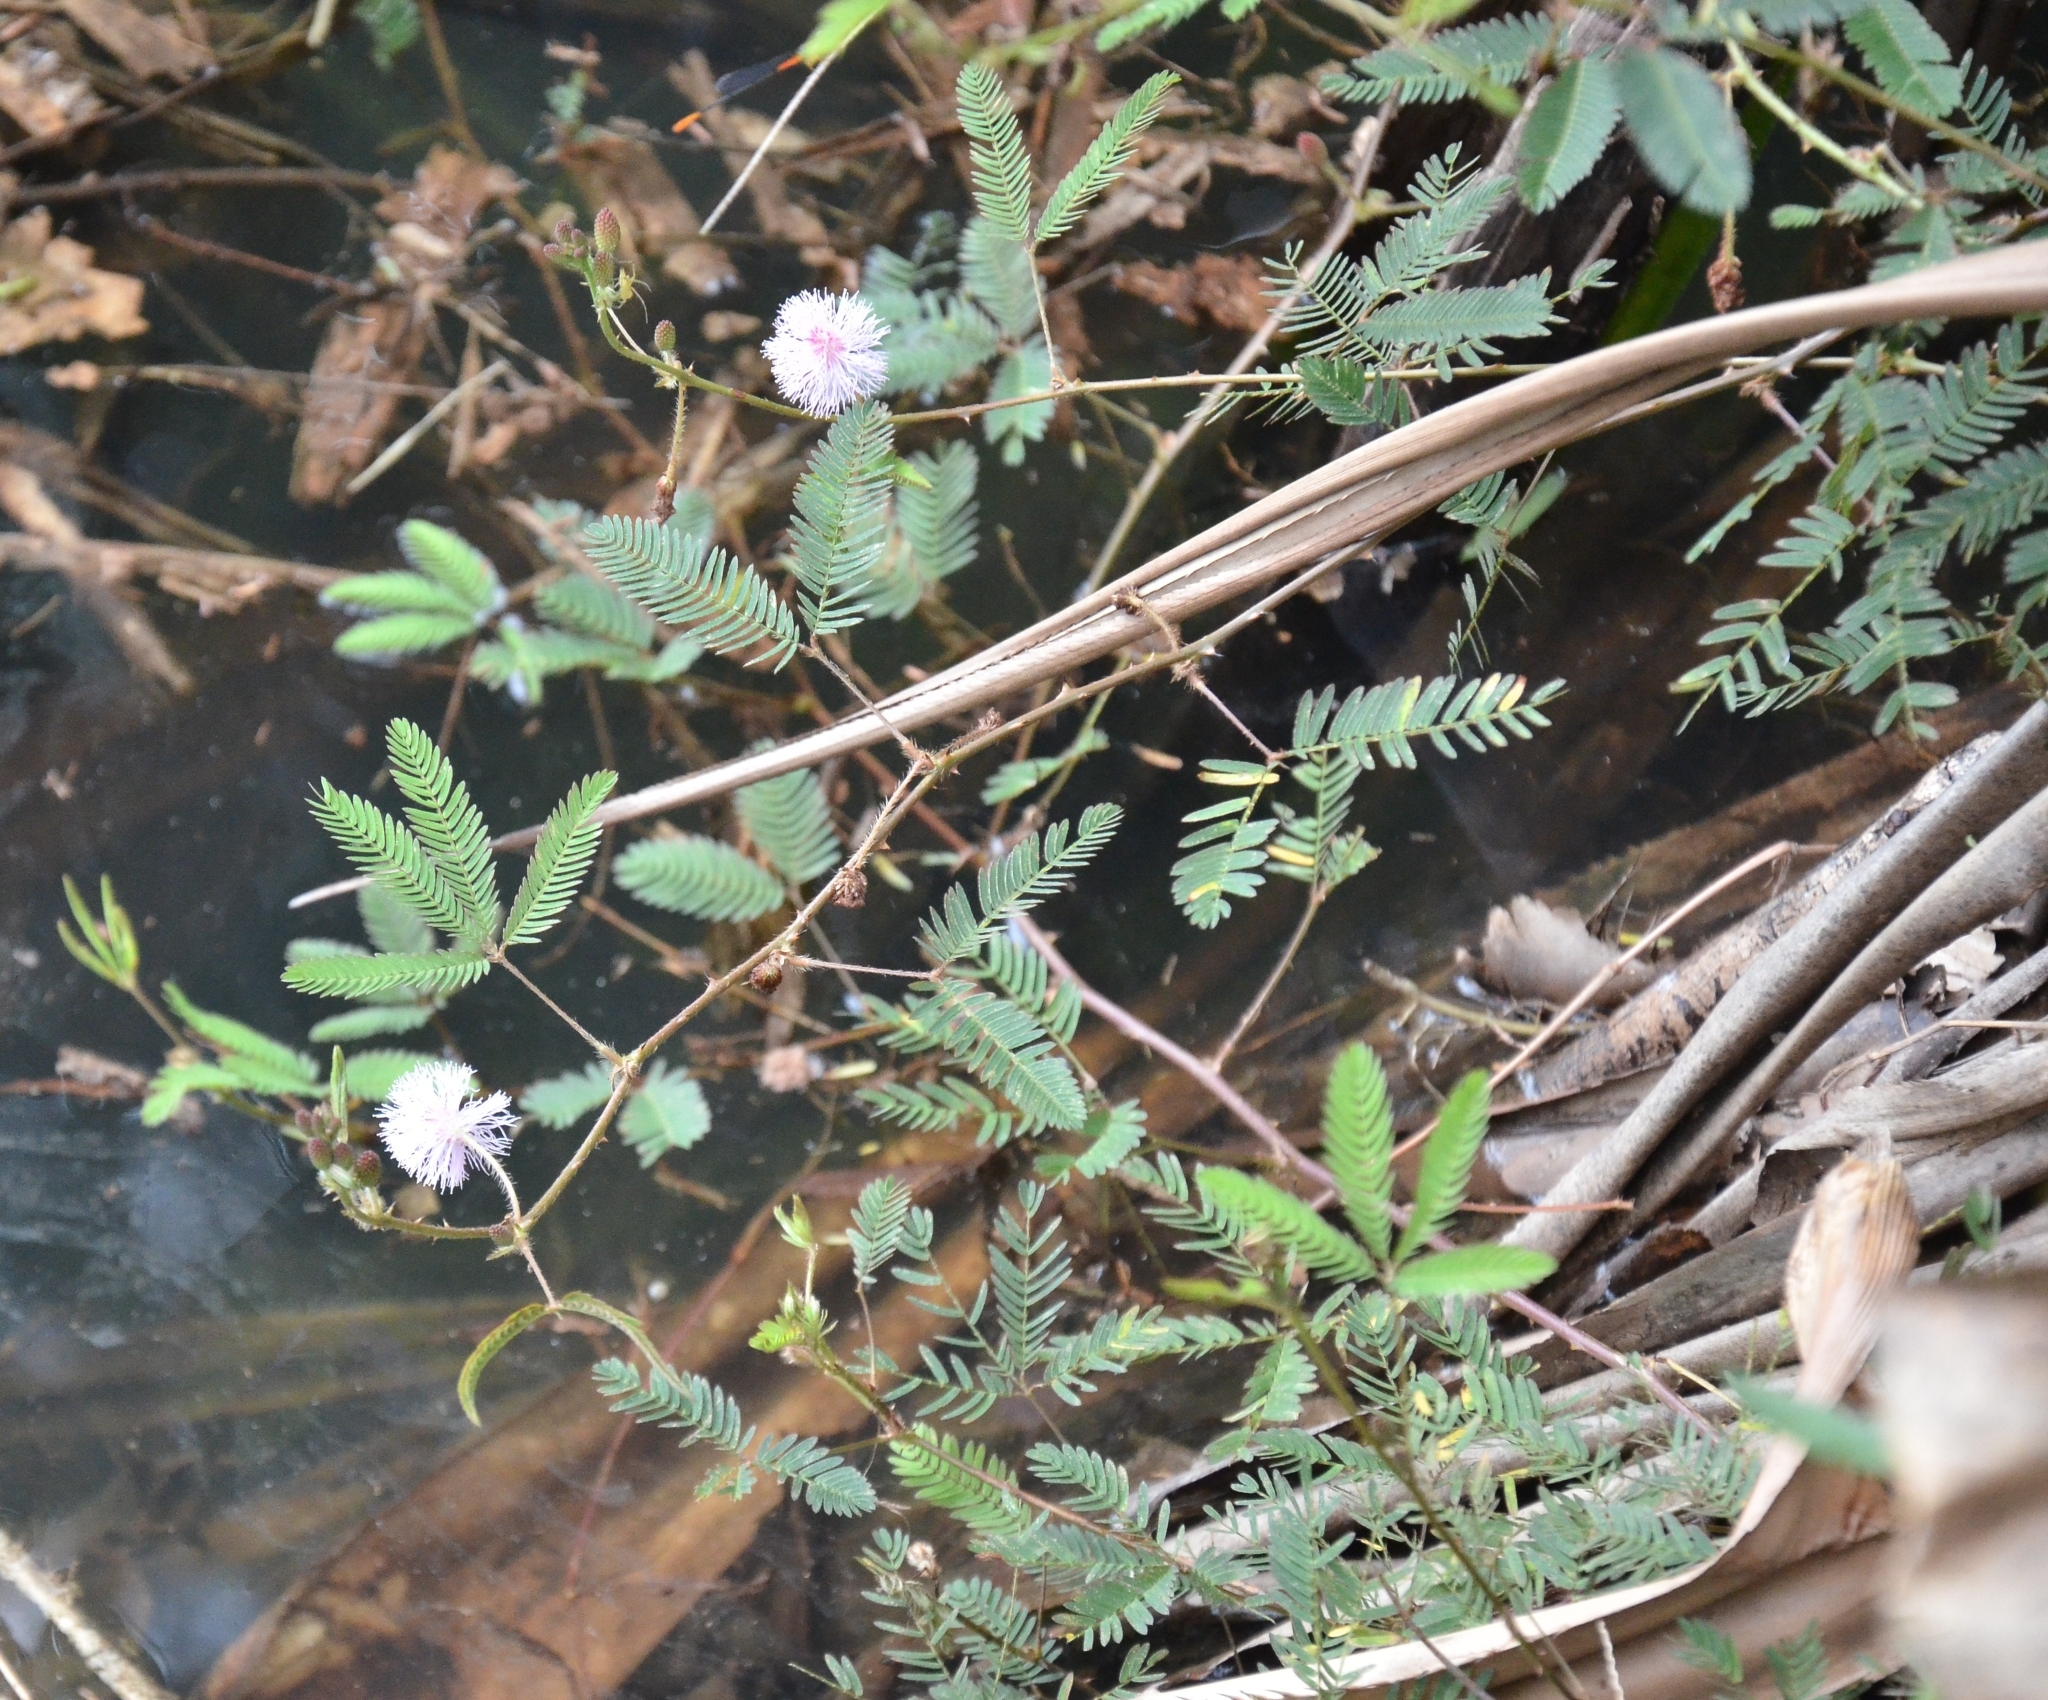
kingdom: Plantae
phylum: Tracheophyta
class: Magnoliopsida
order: Fabales
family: Fabaceae
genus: Mimosa
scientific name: Mimosa pudica
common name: Sensitive plant
